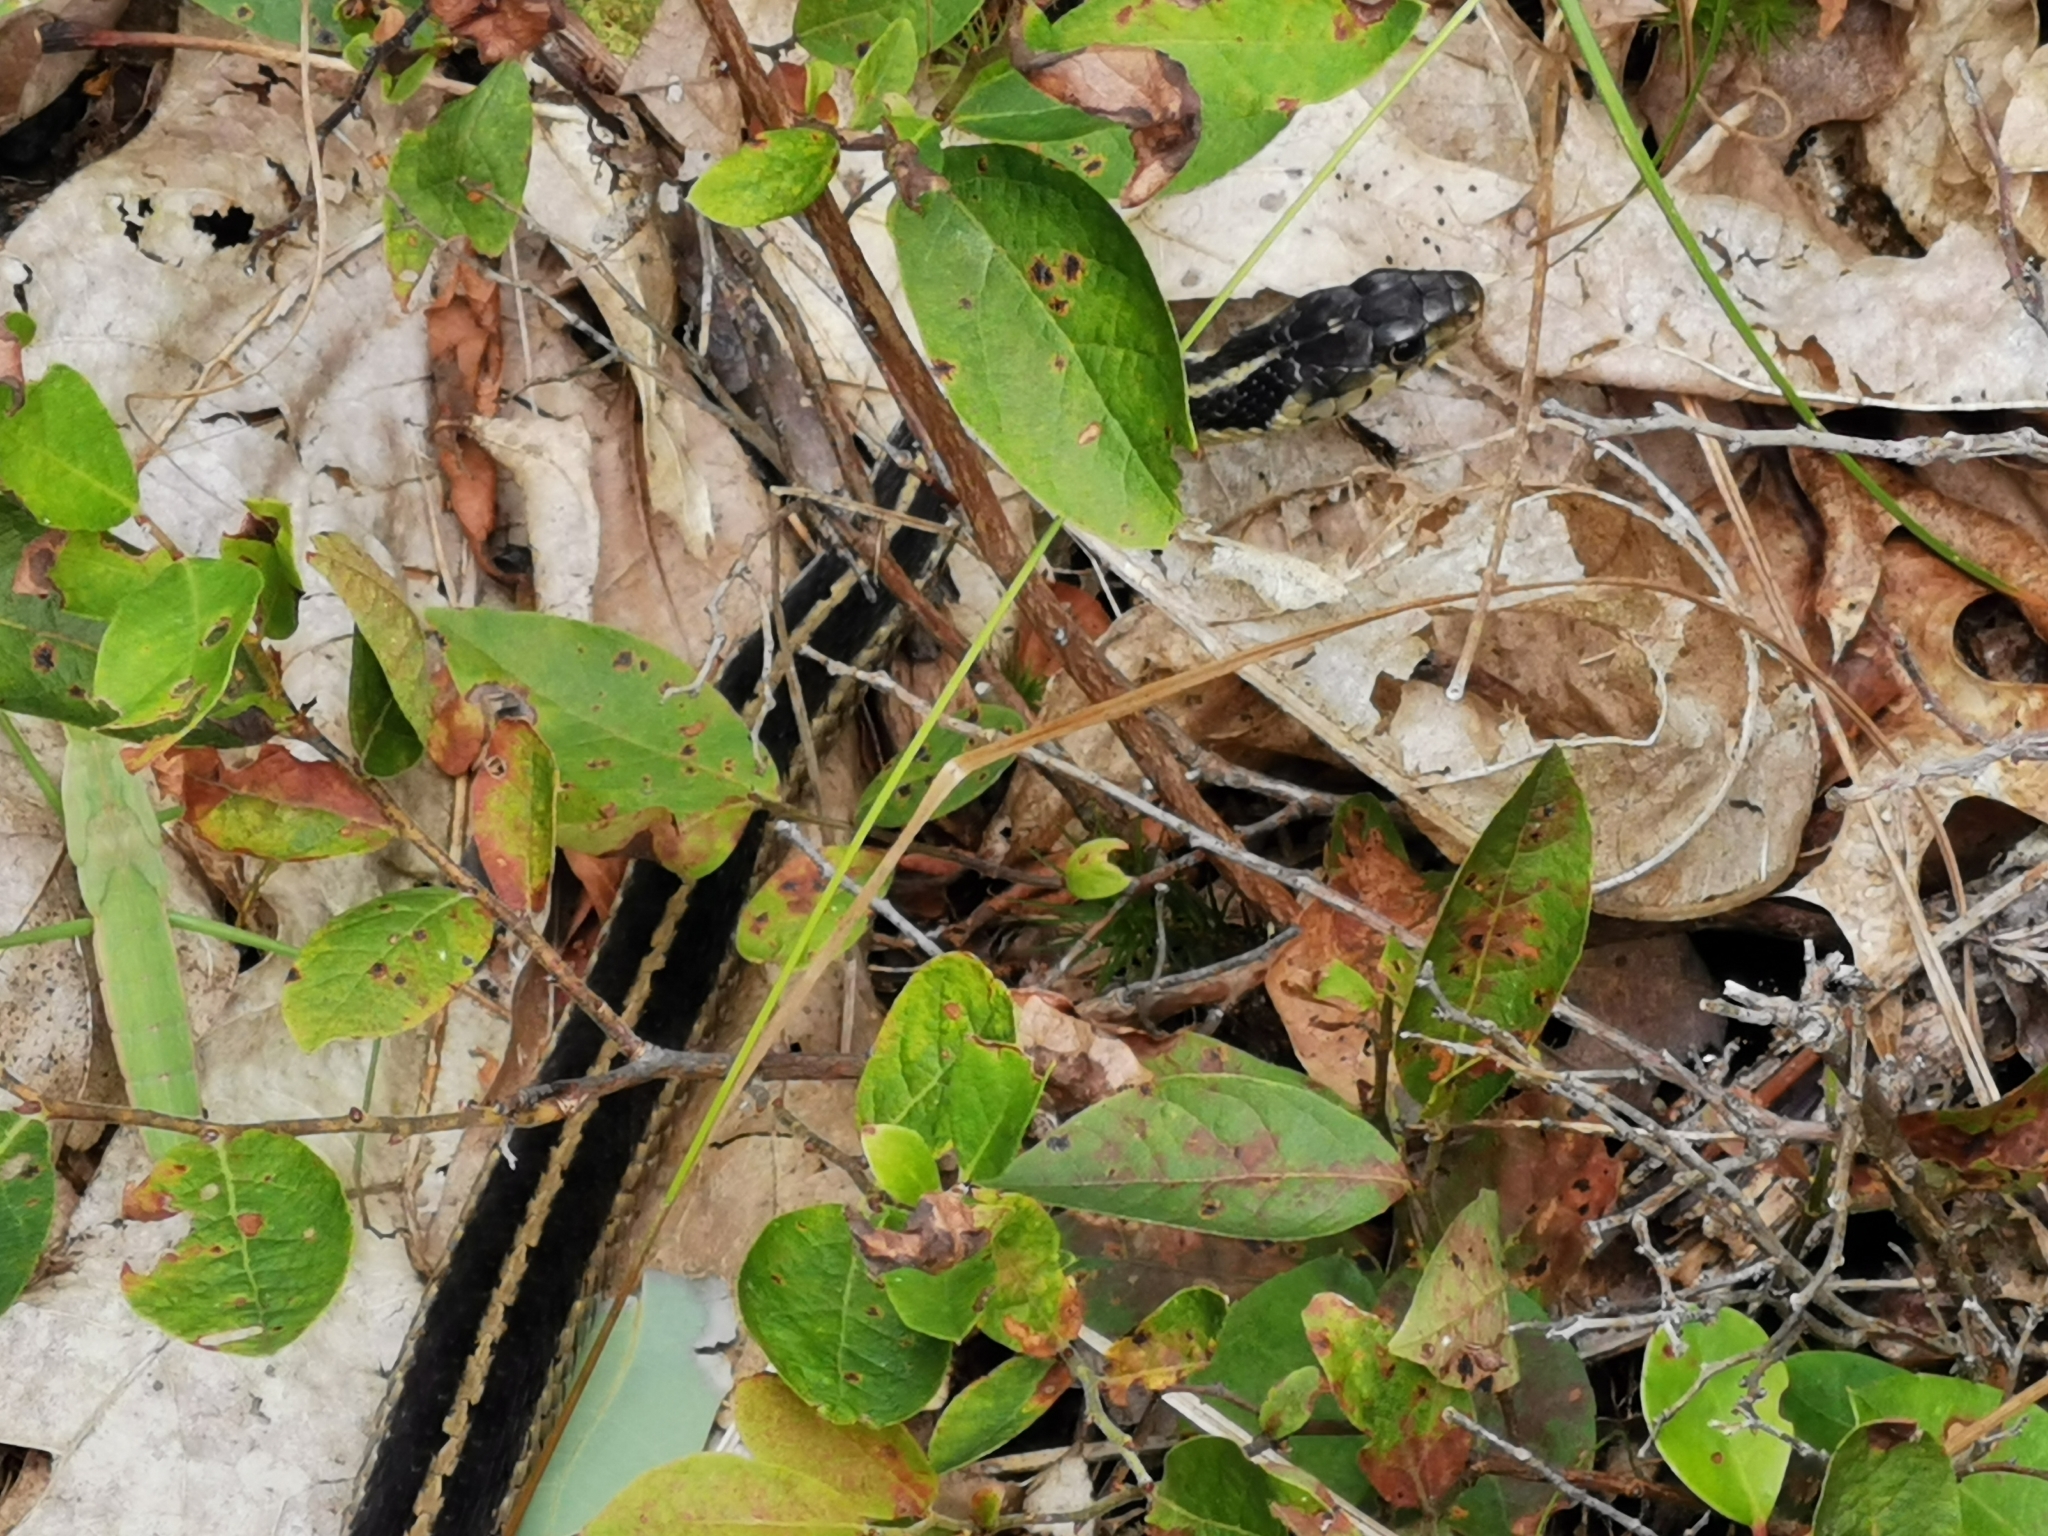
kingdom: Animalia
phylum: Chordata
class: Squamata
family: Colubridae
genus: Thamnophis
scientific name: Thamnophis sirtalis
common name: Common garter snake
